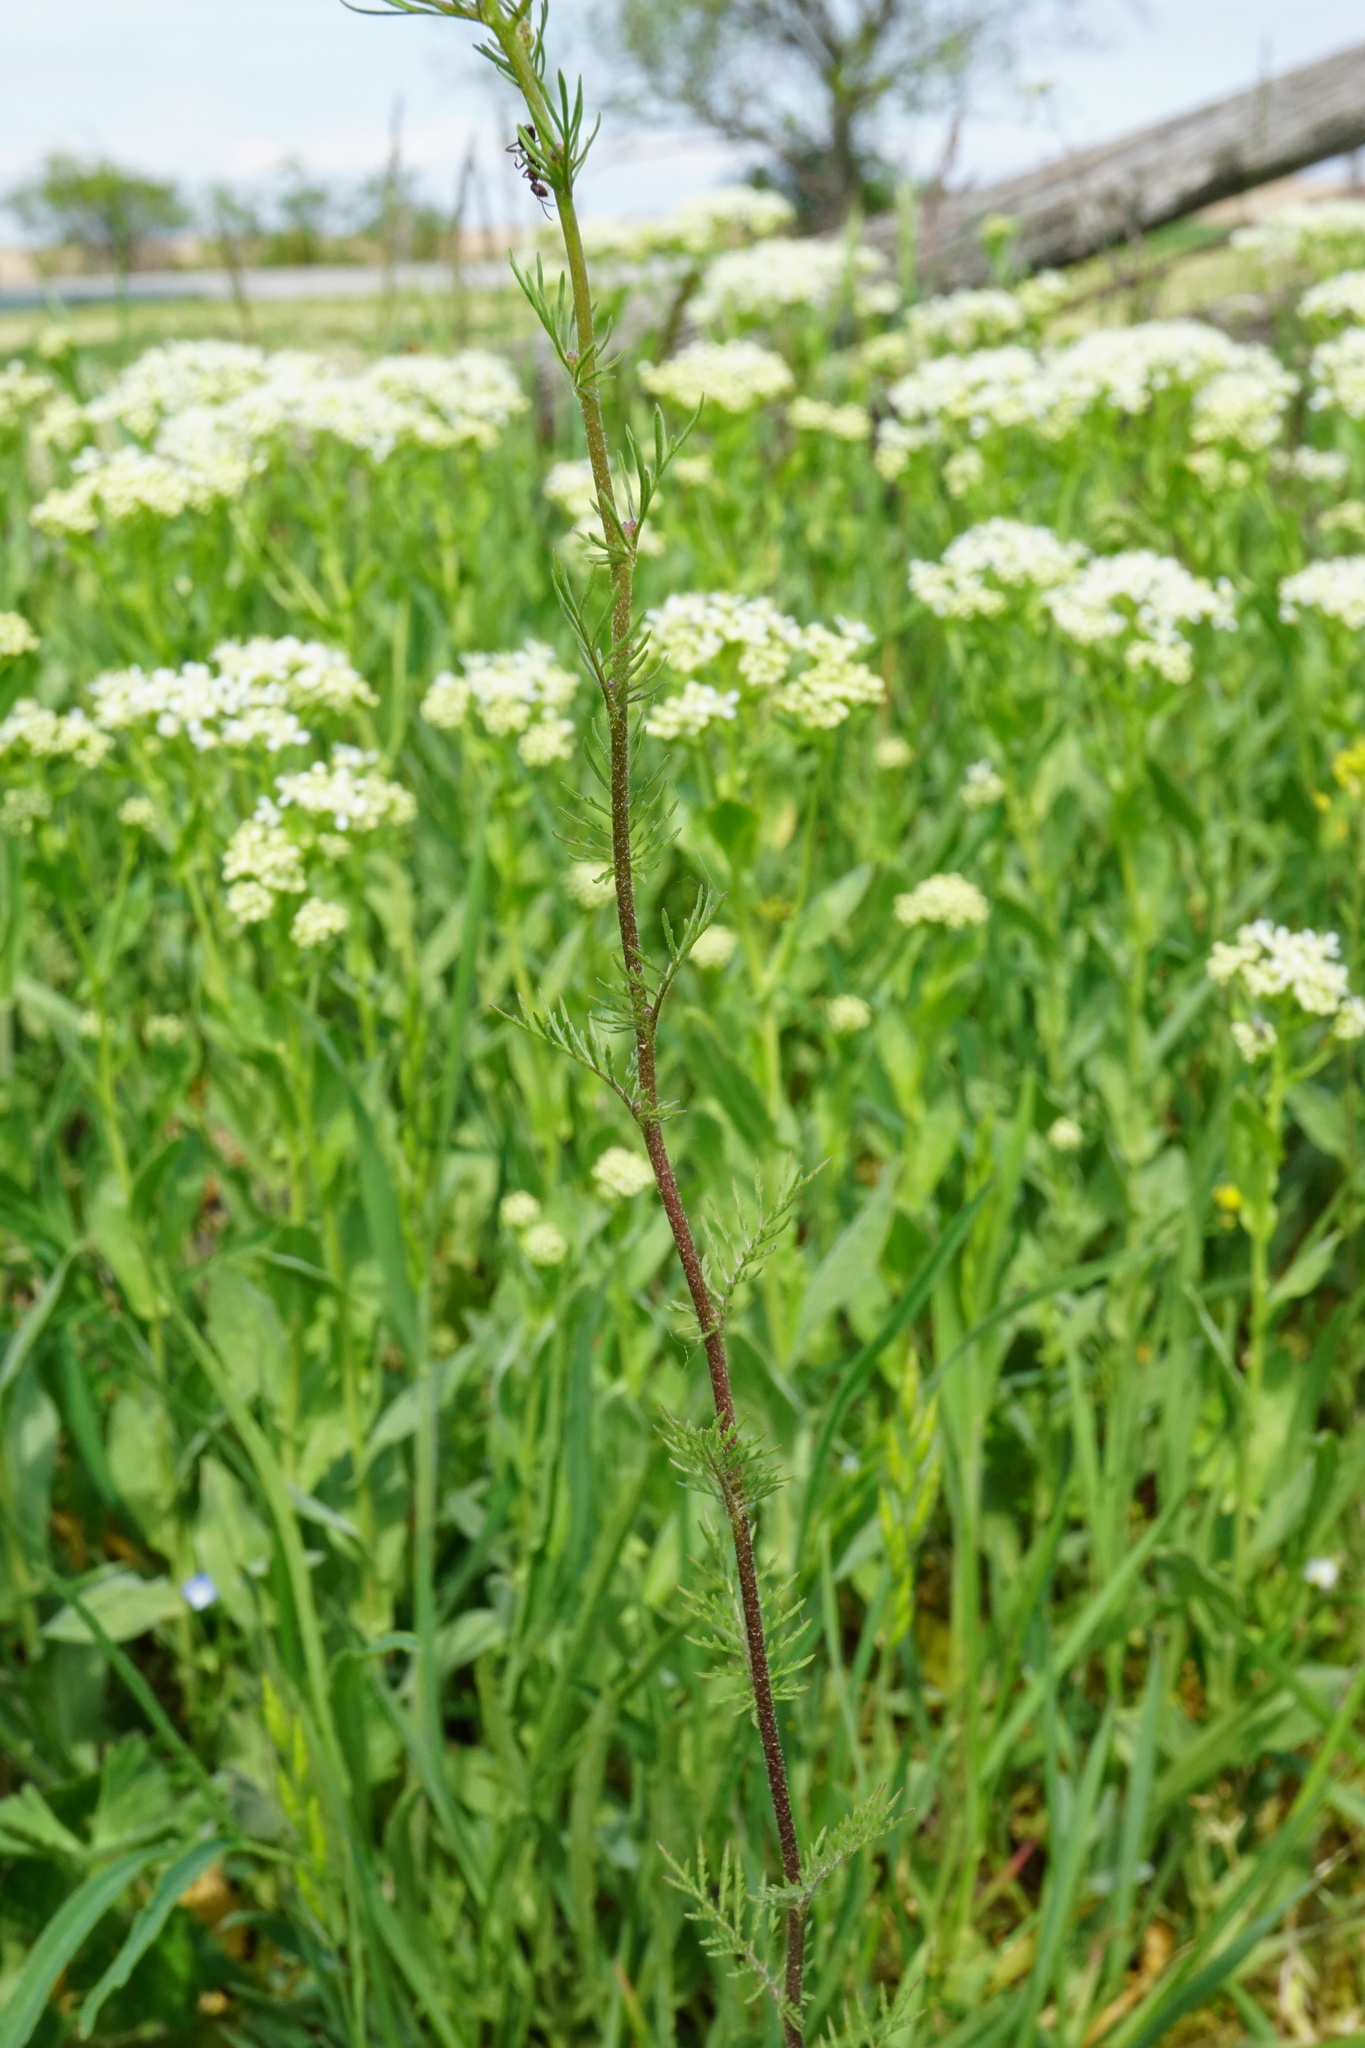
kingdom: Plantae
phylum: Tracheophyta
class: Magnoliopsida
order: Brassicales
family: Brassicaceae
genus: Descurainia
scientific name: Descurainia sophia
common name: Flixweed
